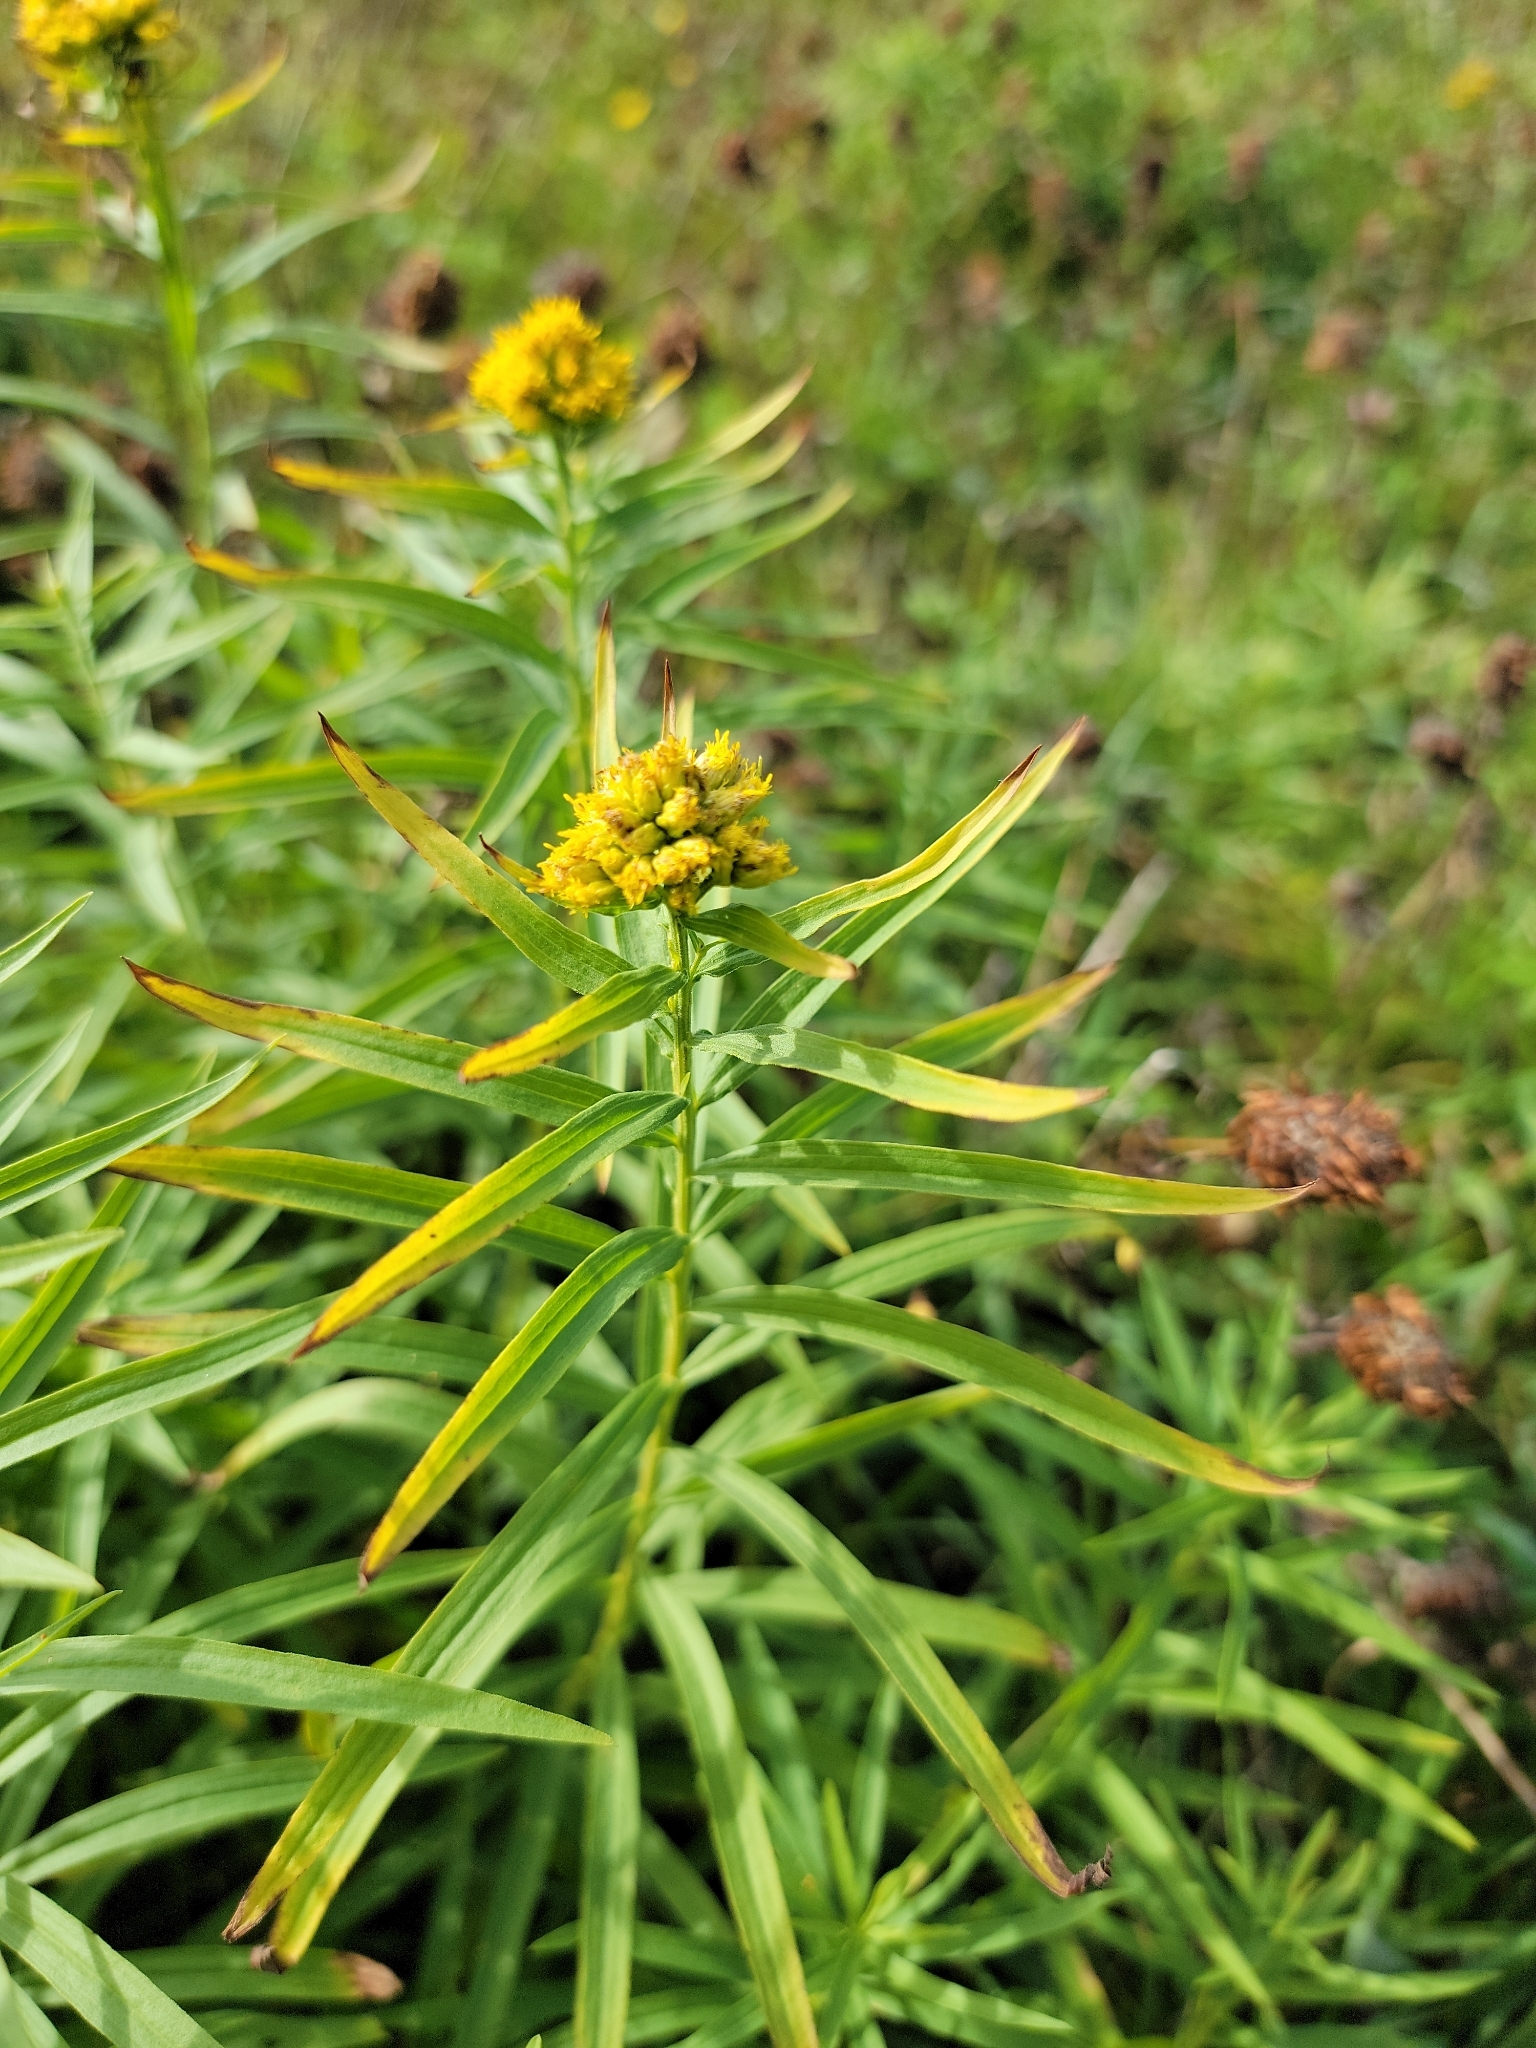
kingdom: Plantae
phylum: Tracheophyta
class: Magnoliopsida
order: Asterales
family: Asteraceae
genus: Euthamia
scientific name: Euthamia graminifolia
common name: Common goldentop
